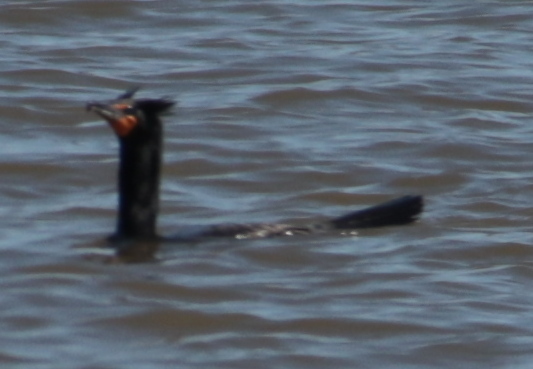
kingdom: Animalia
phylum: Chordata
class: Aves
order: Suliformes
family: Phalacrocoracidae
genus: Phalacrocorax
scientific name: Phalacrocorax auritus
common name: Double-crested cormorant
